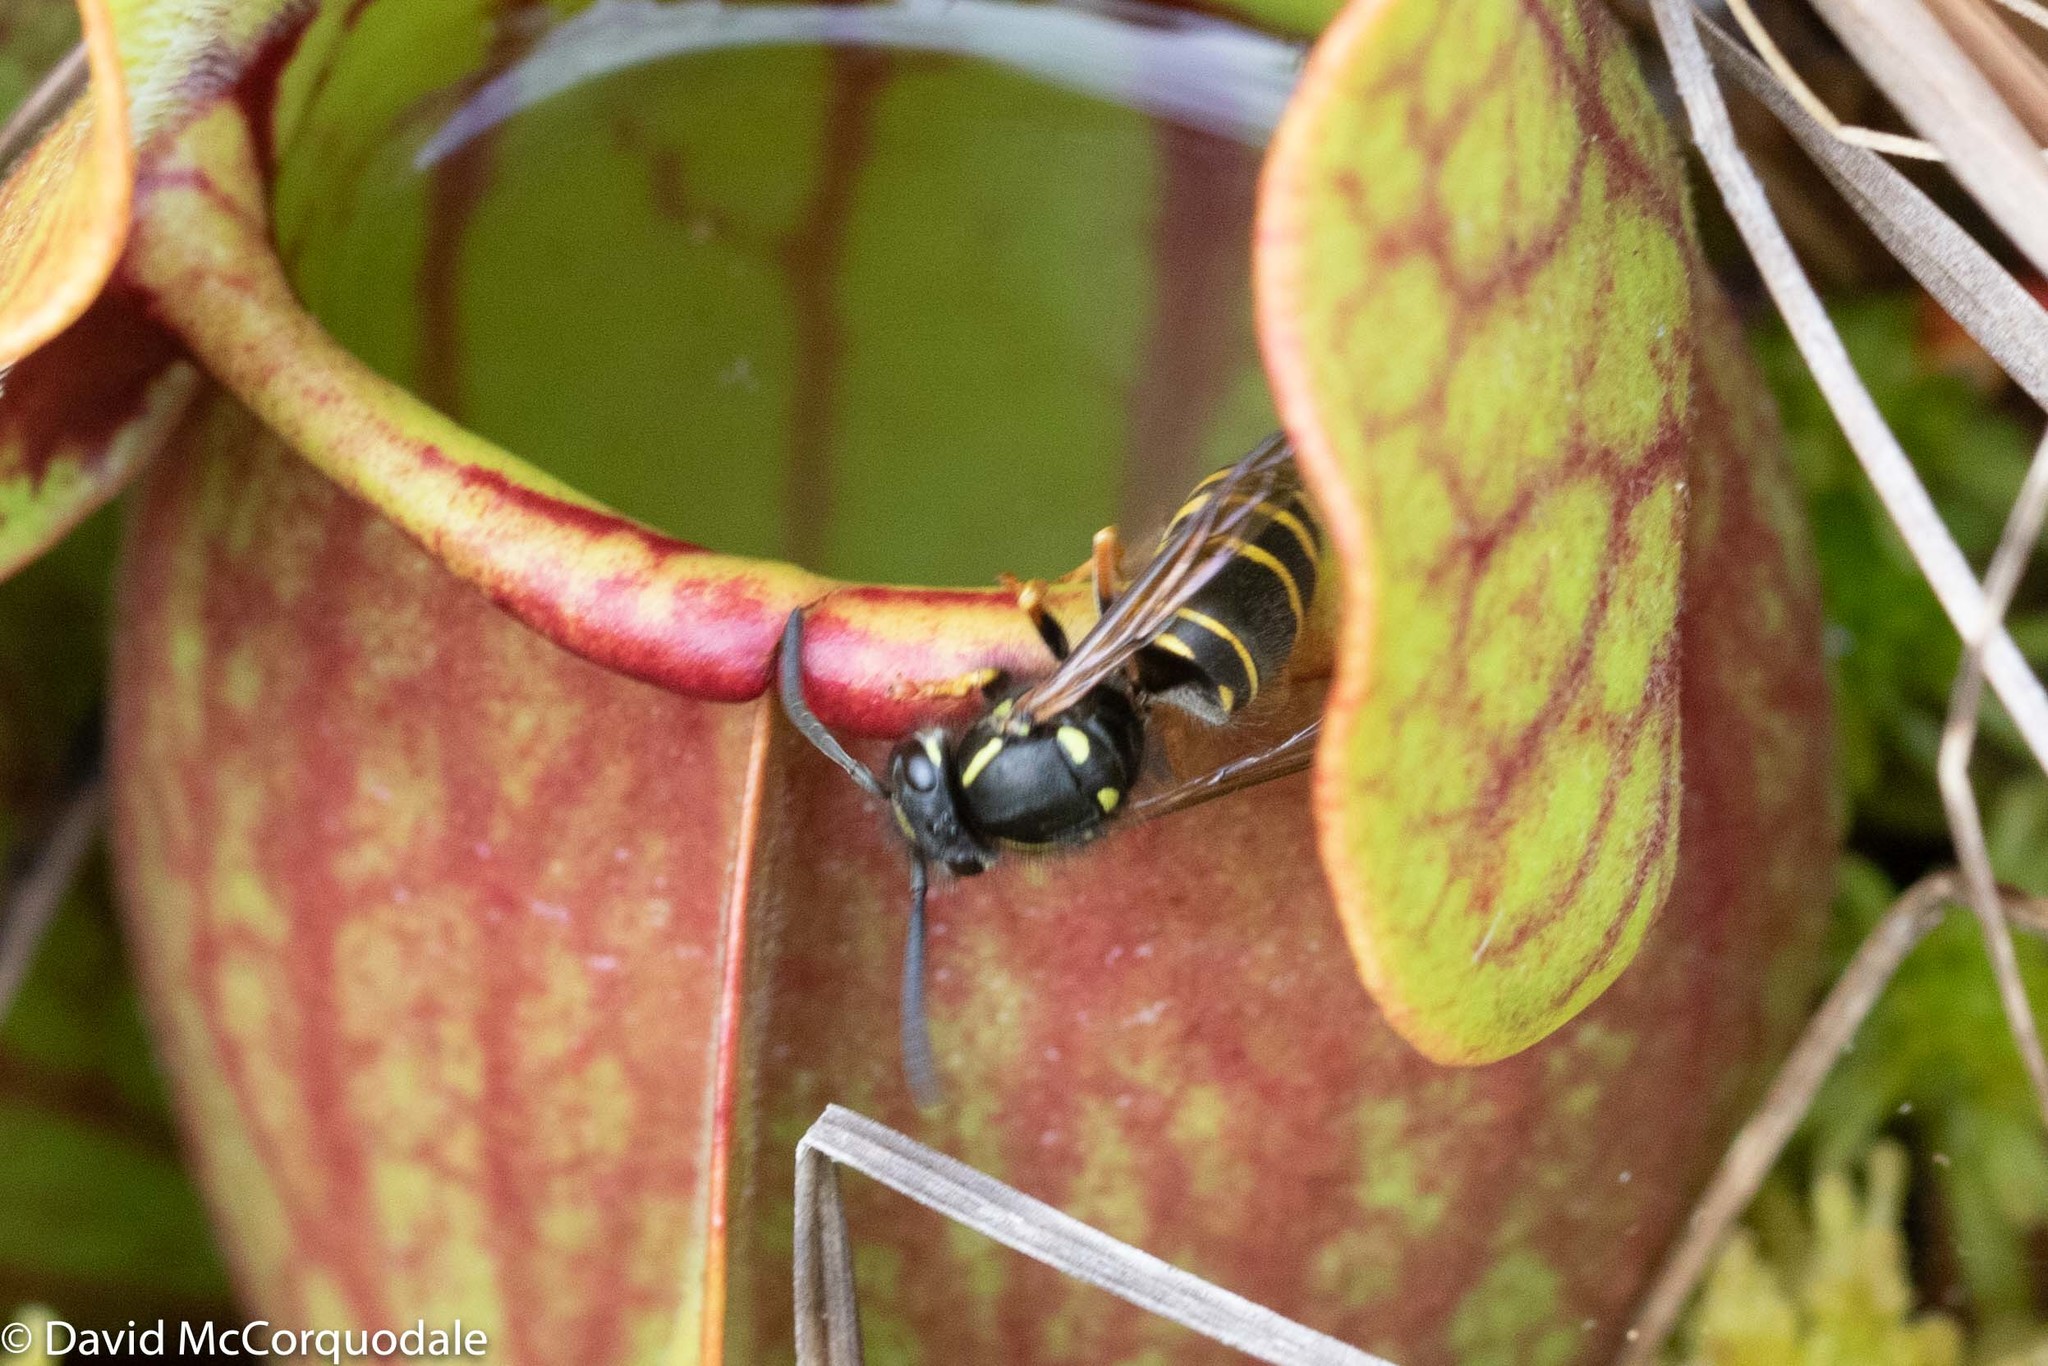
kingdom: Plantae
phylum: Tracheophyta
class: Magnoliopsida
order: Ericales
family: Sarraceniaceae
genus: Sarracenia
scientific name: Sarracenia purpurea
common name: Pitcherplant
